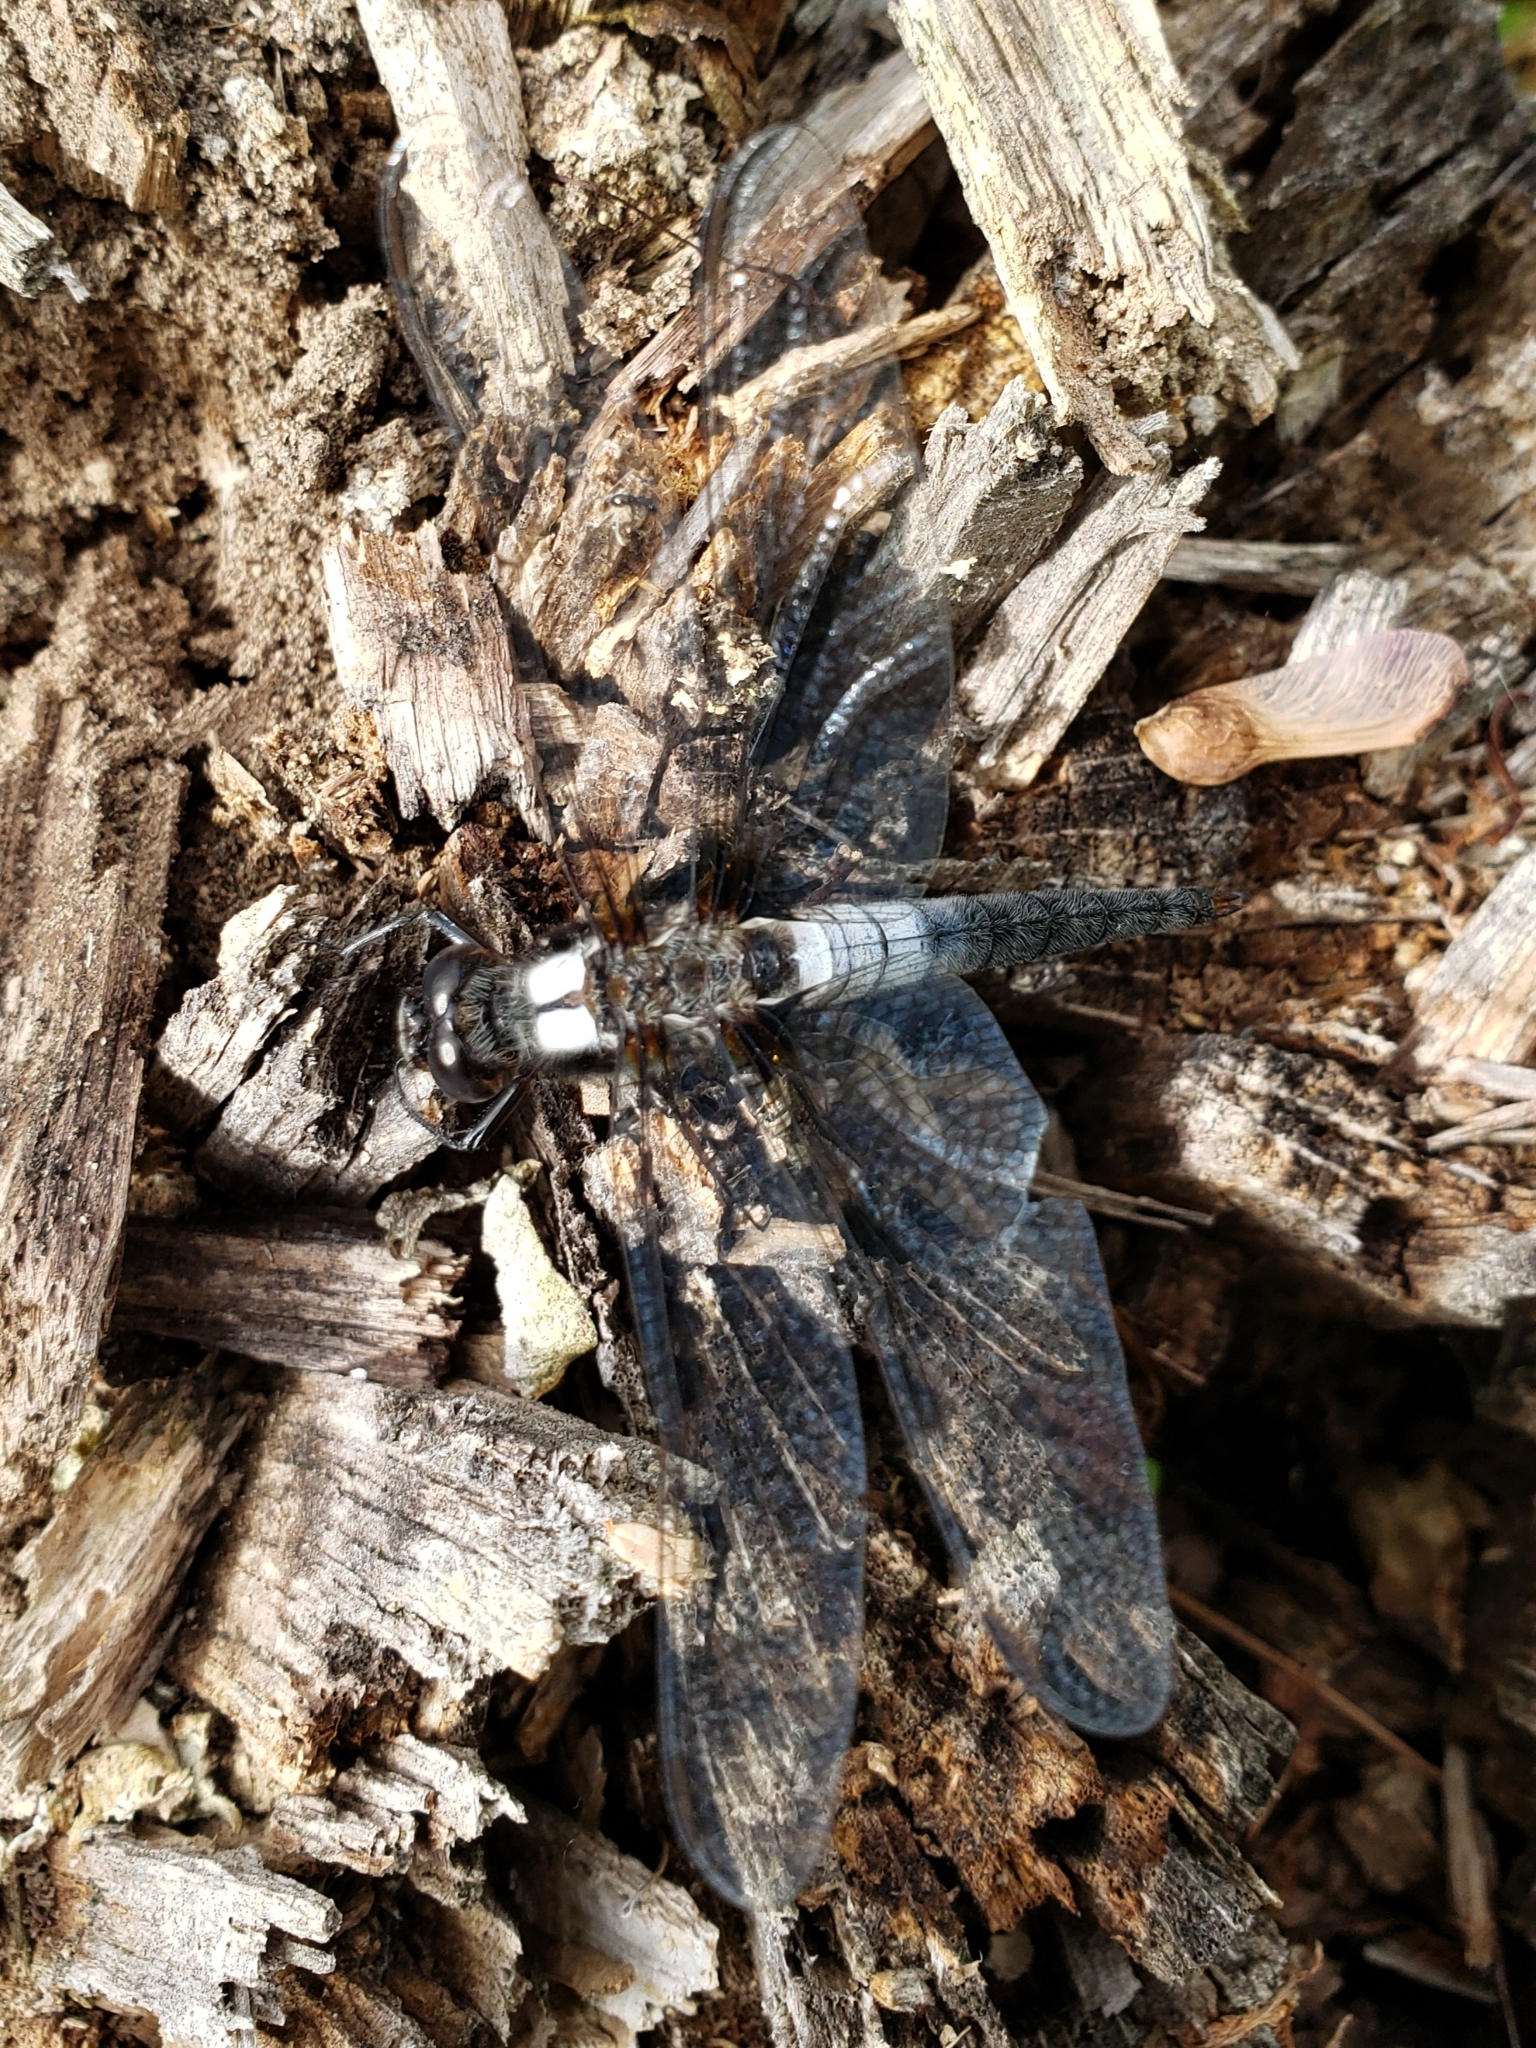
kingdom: Animalia
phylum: Arthropoda
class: Insecta
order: Odonata
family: Libellulidae
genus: Ladona
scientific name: Ladona julia
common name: Chalk-fronted corporal
